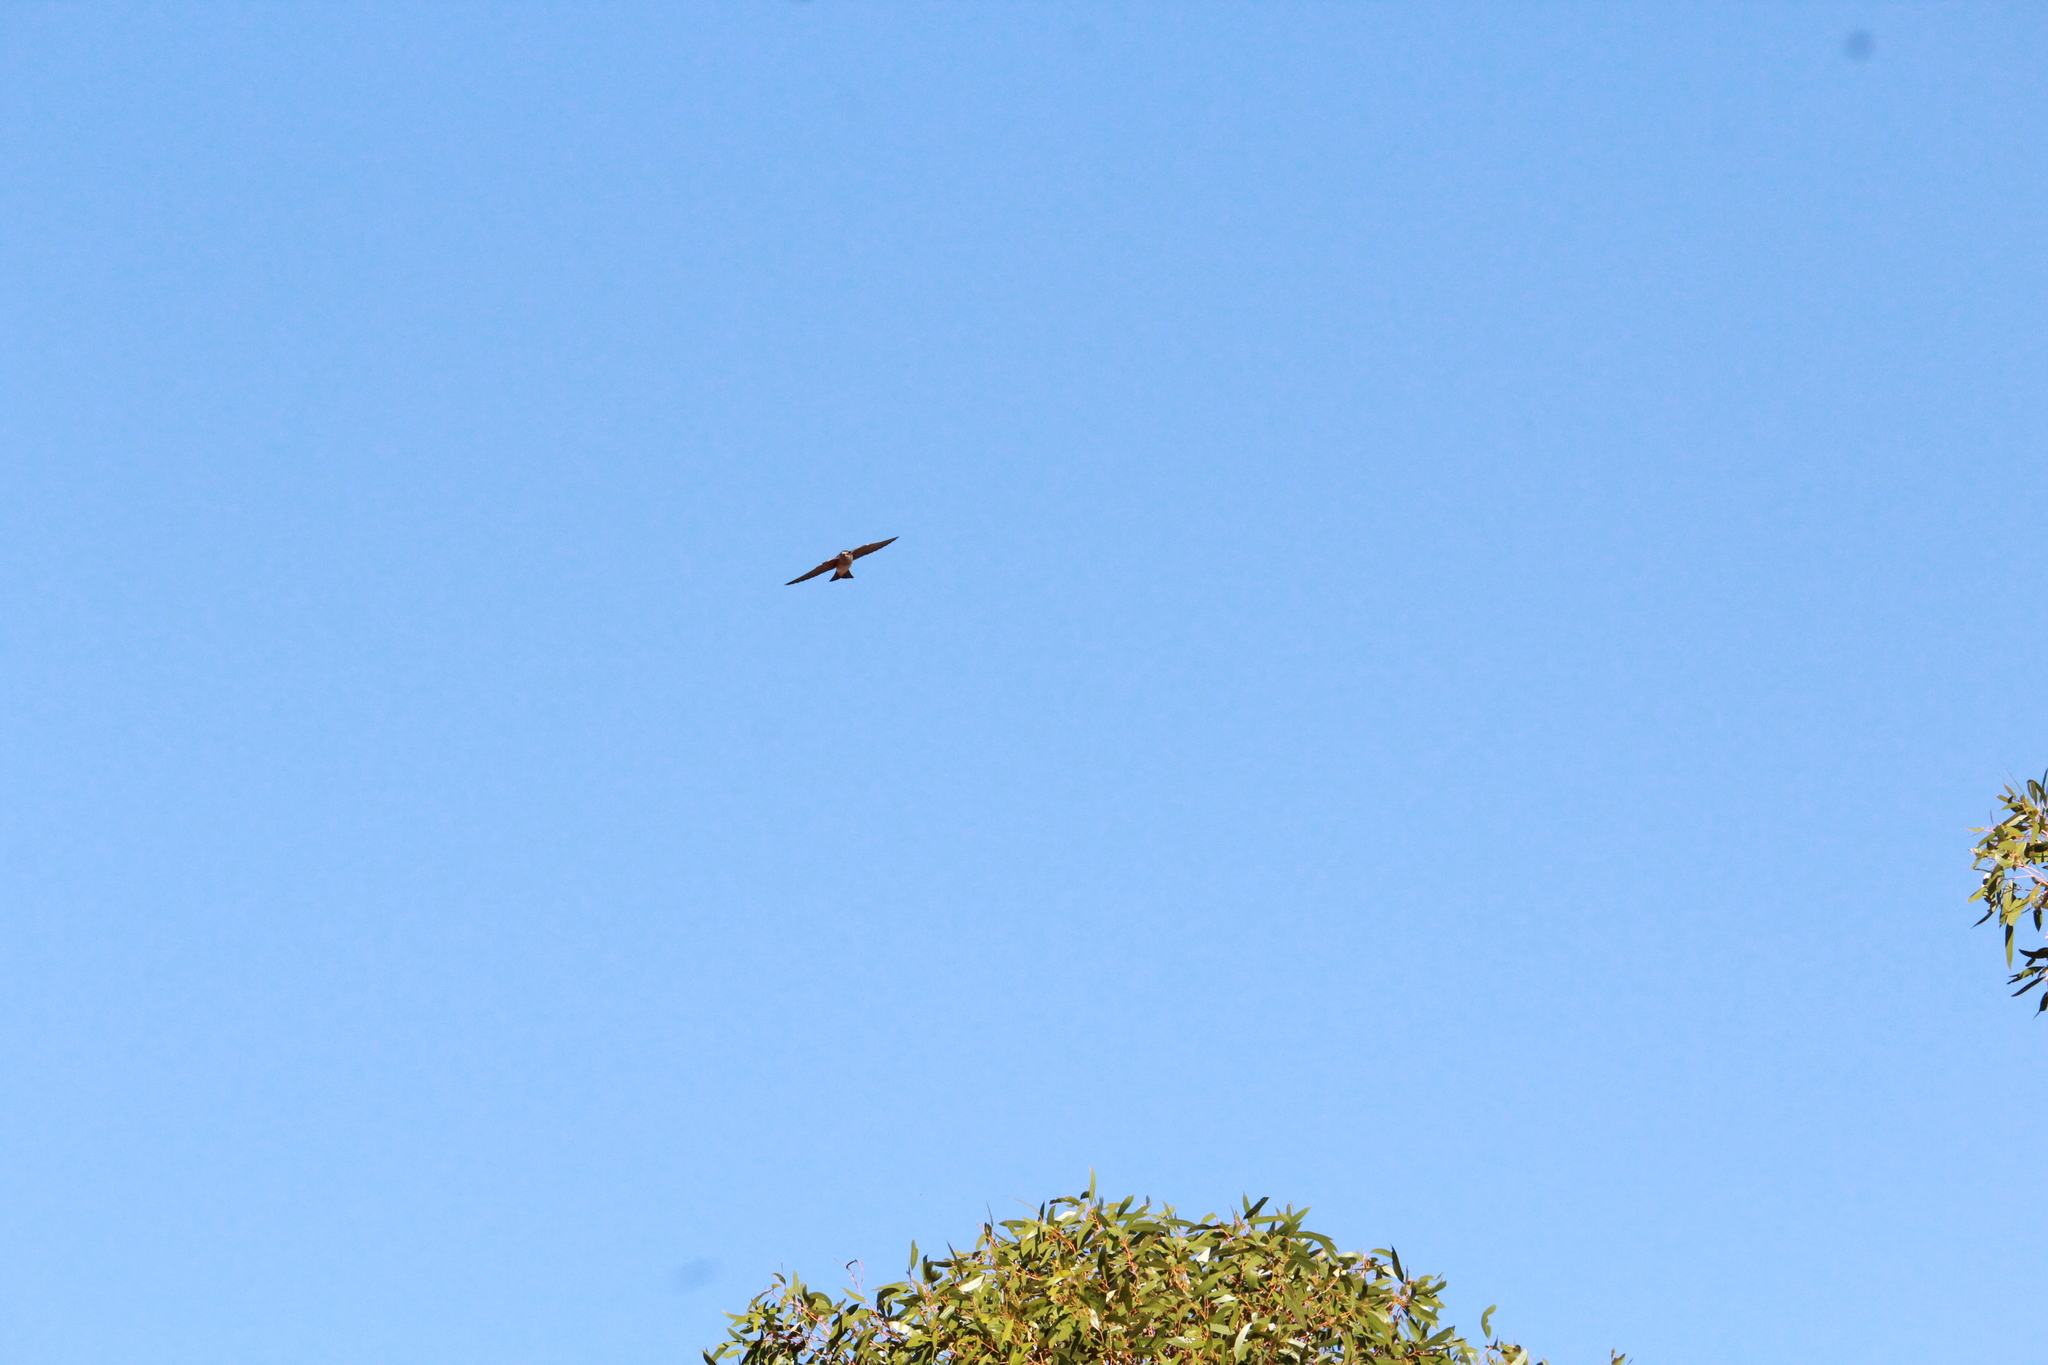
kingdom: Animalia
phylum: Chordata
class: Aves
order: Passeriformes
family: Hirundinidae
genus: Petrochelidon
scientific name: Petrochelidon nigricans
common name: Tree martin
